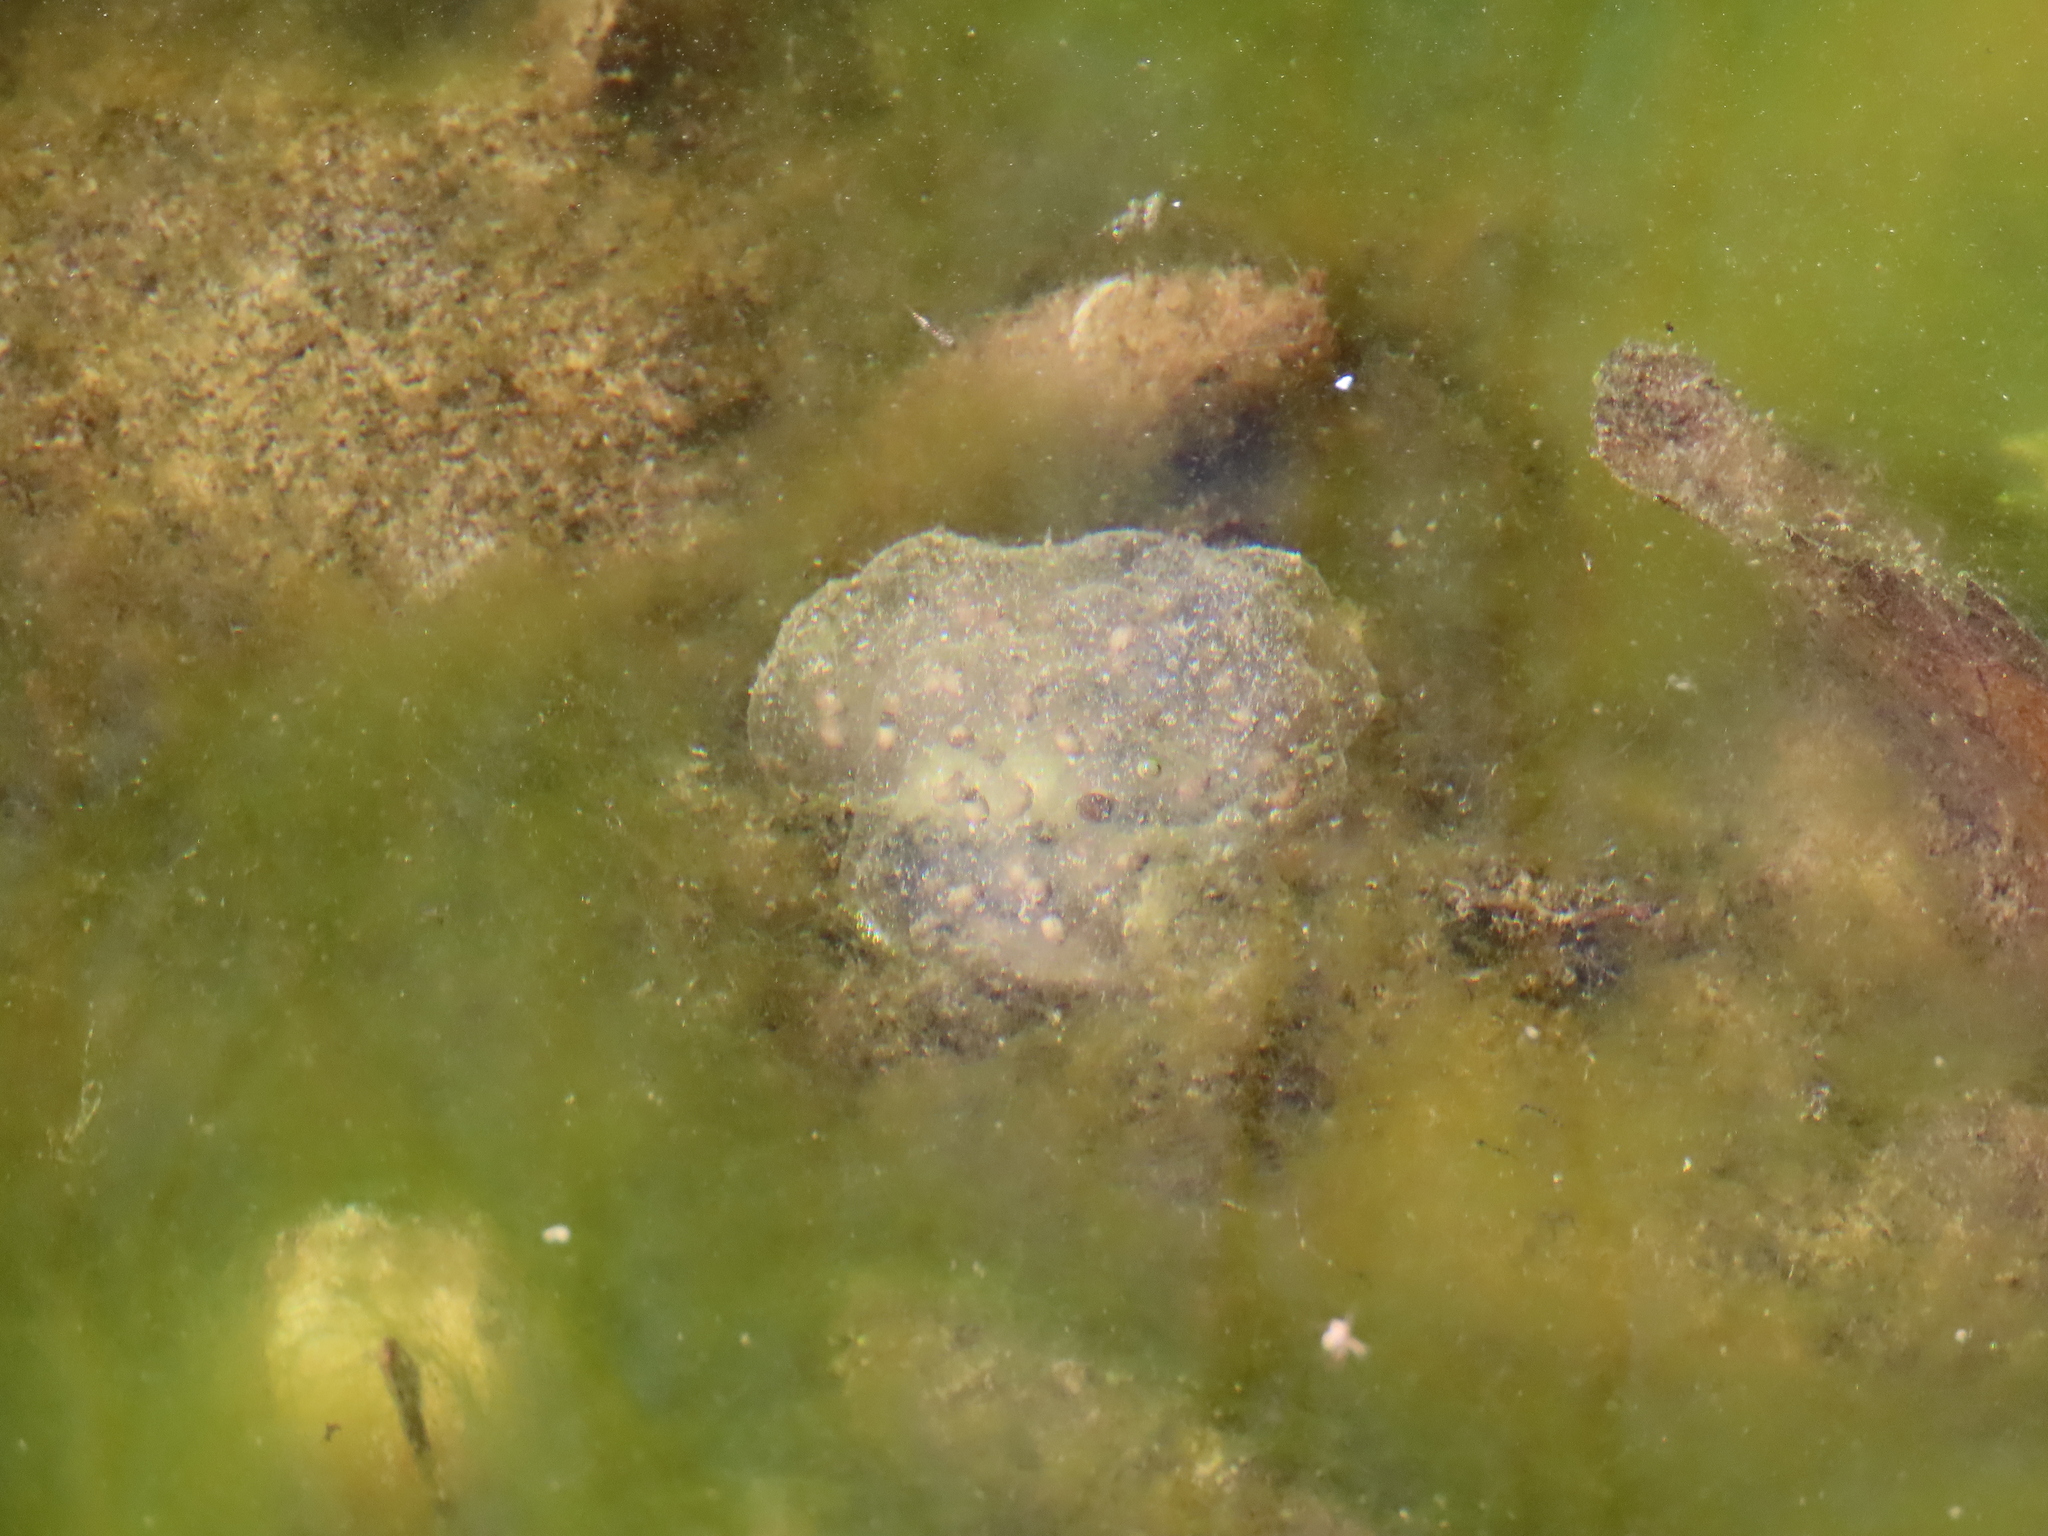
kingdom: Animalia
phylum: Chordata
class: Amphibia
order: Caudata
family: Ambystomatidae
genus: Ambystoma
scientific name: Ambystoma maculatum
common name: Spotted salamander
